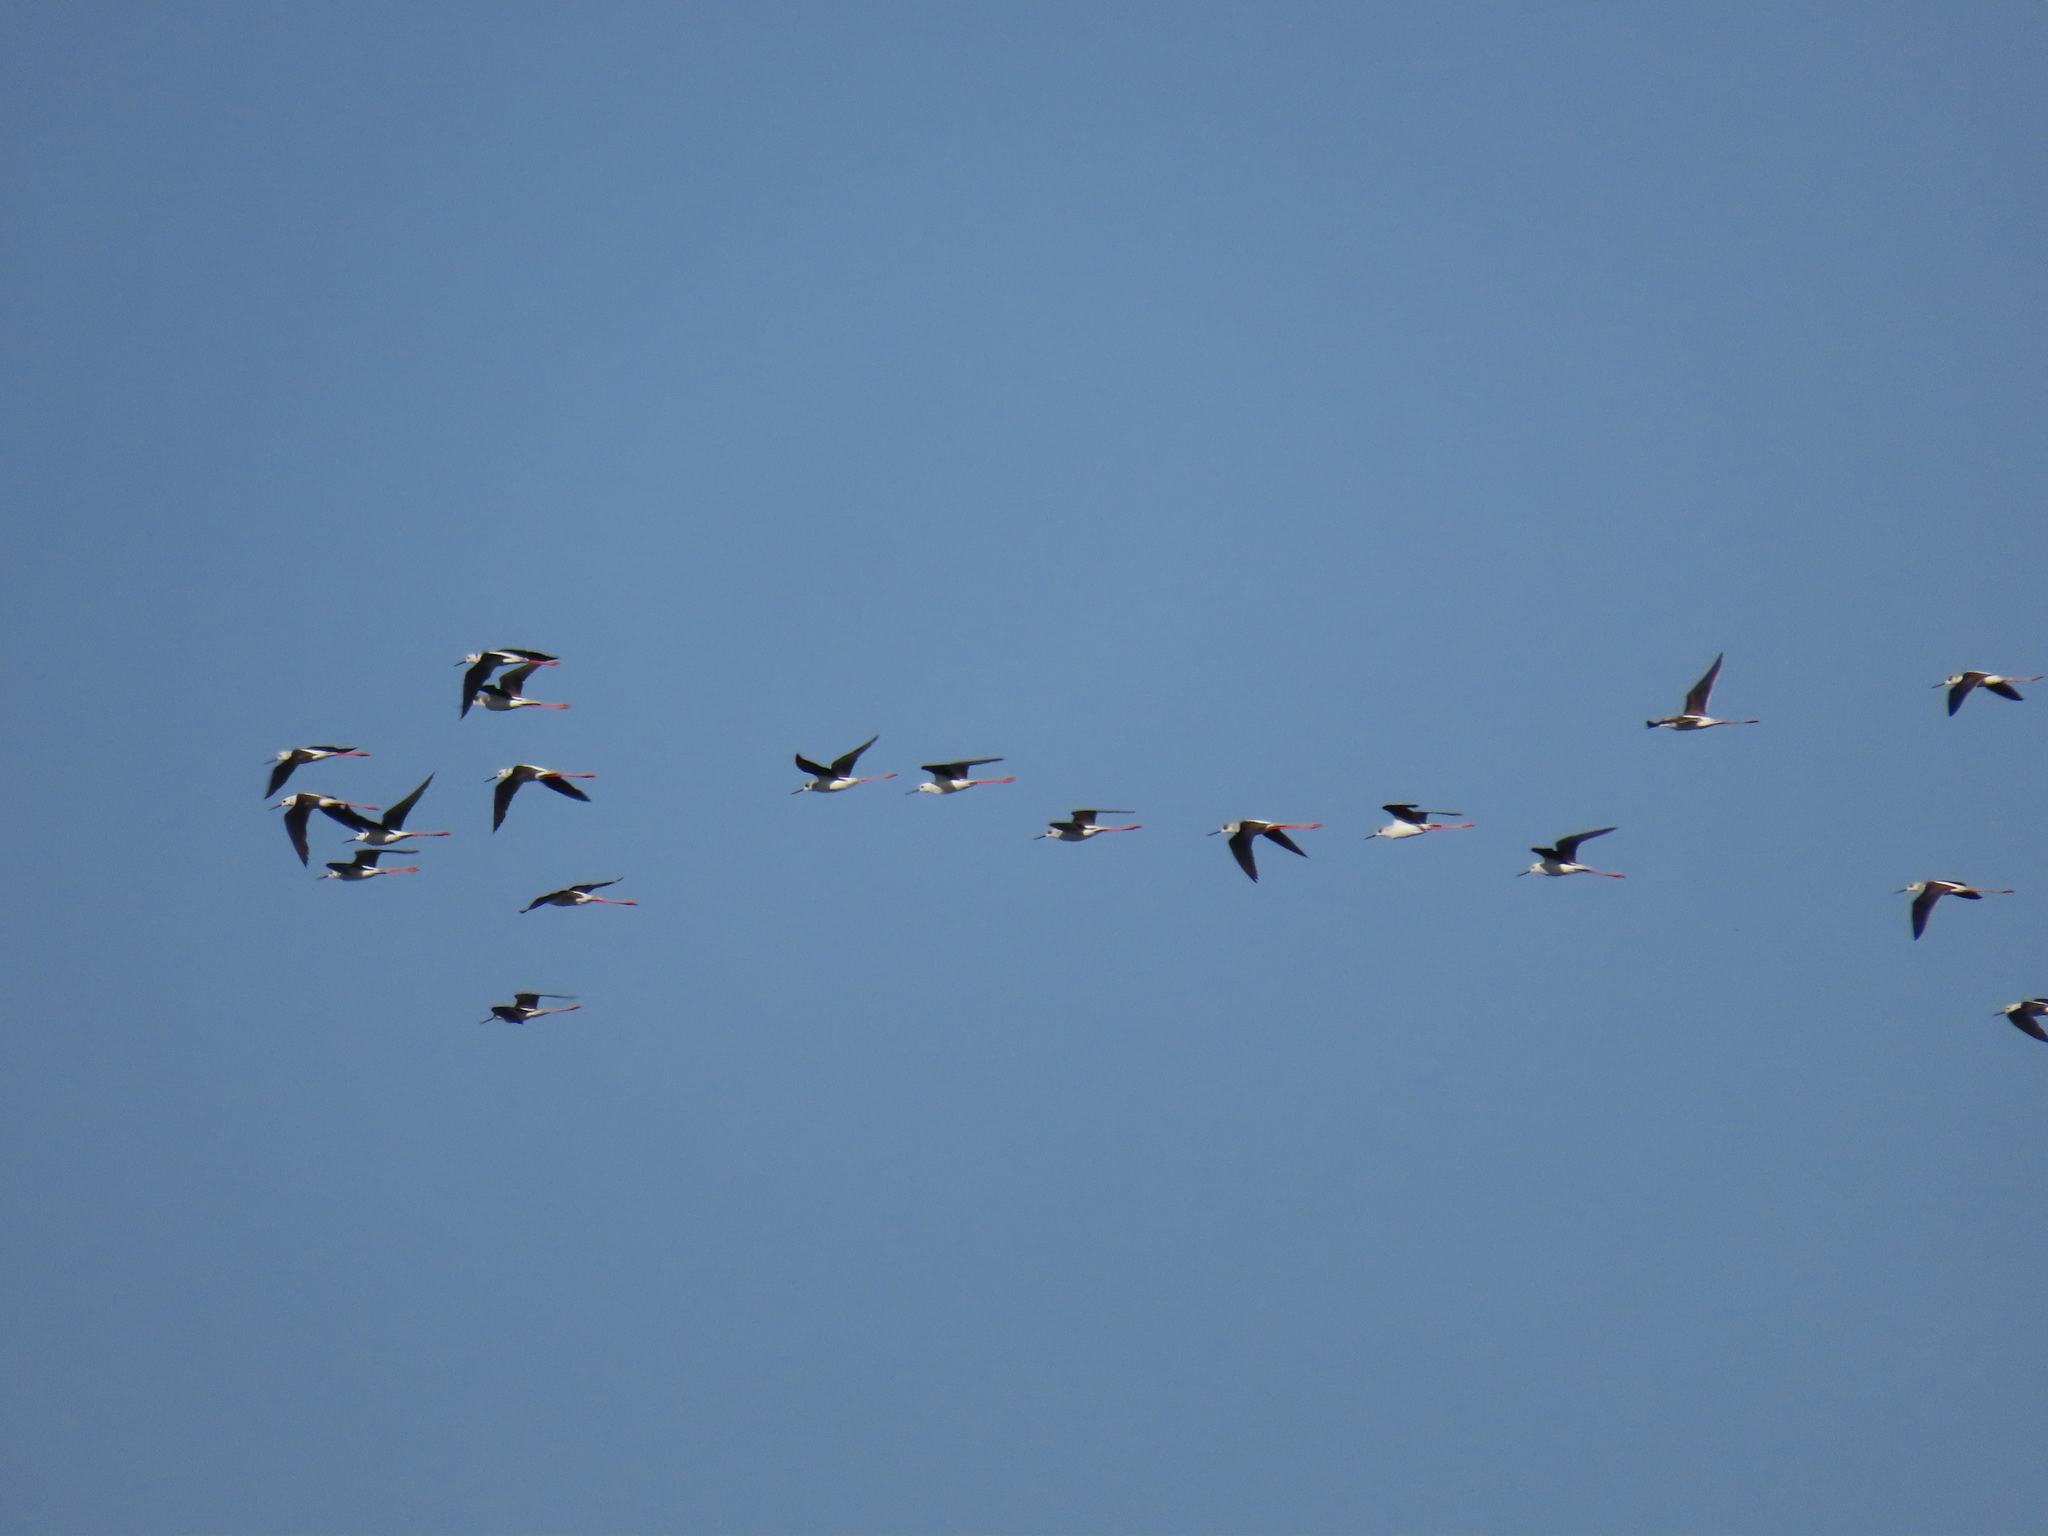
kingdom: Animalia
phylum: Chordata
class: Aves
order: Charadriiformes
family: Recurvirostridae
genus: Himantopus
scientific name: Himantopus himantopus
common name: Black-winged stilt
